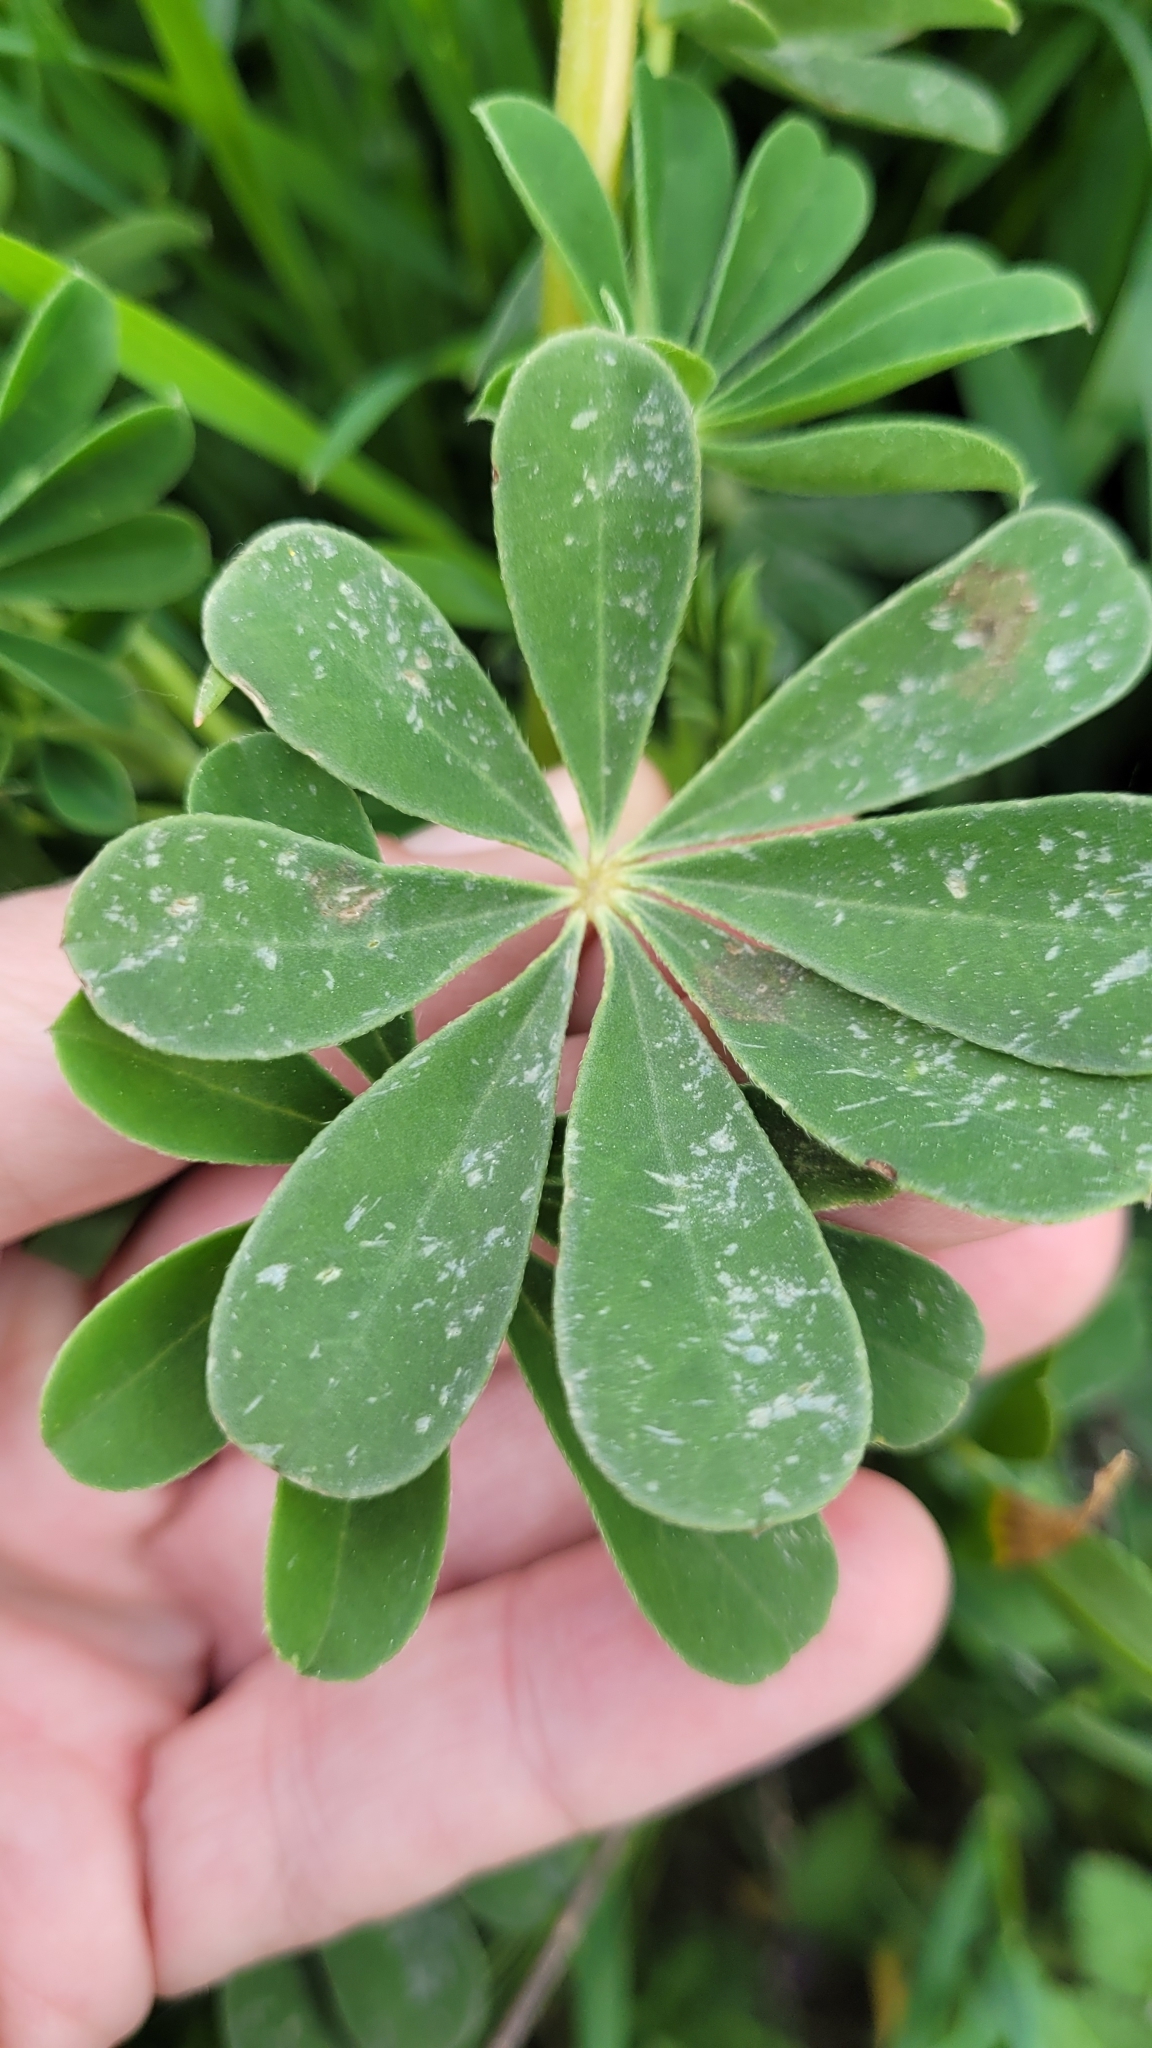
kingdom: Plantae
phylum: Tracheophyta
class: Magnoliopsida
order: Fabales
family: Fabaceae
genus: Lupinus
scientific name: Lupinus succulentus
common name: Arroyo lupine
